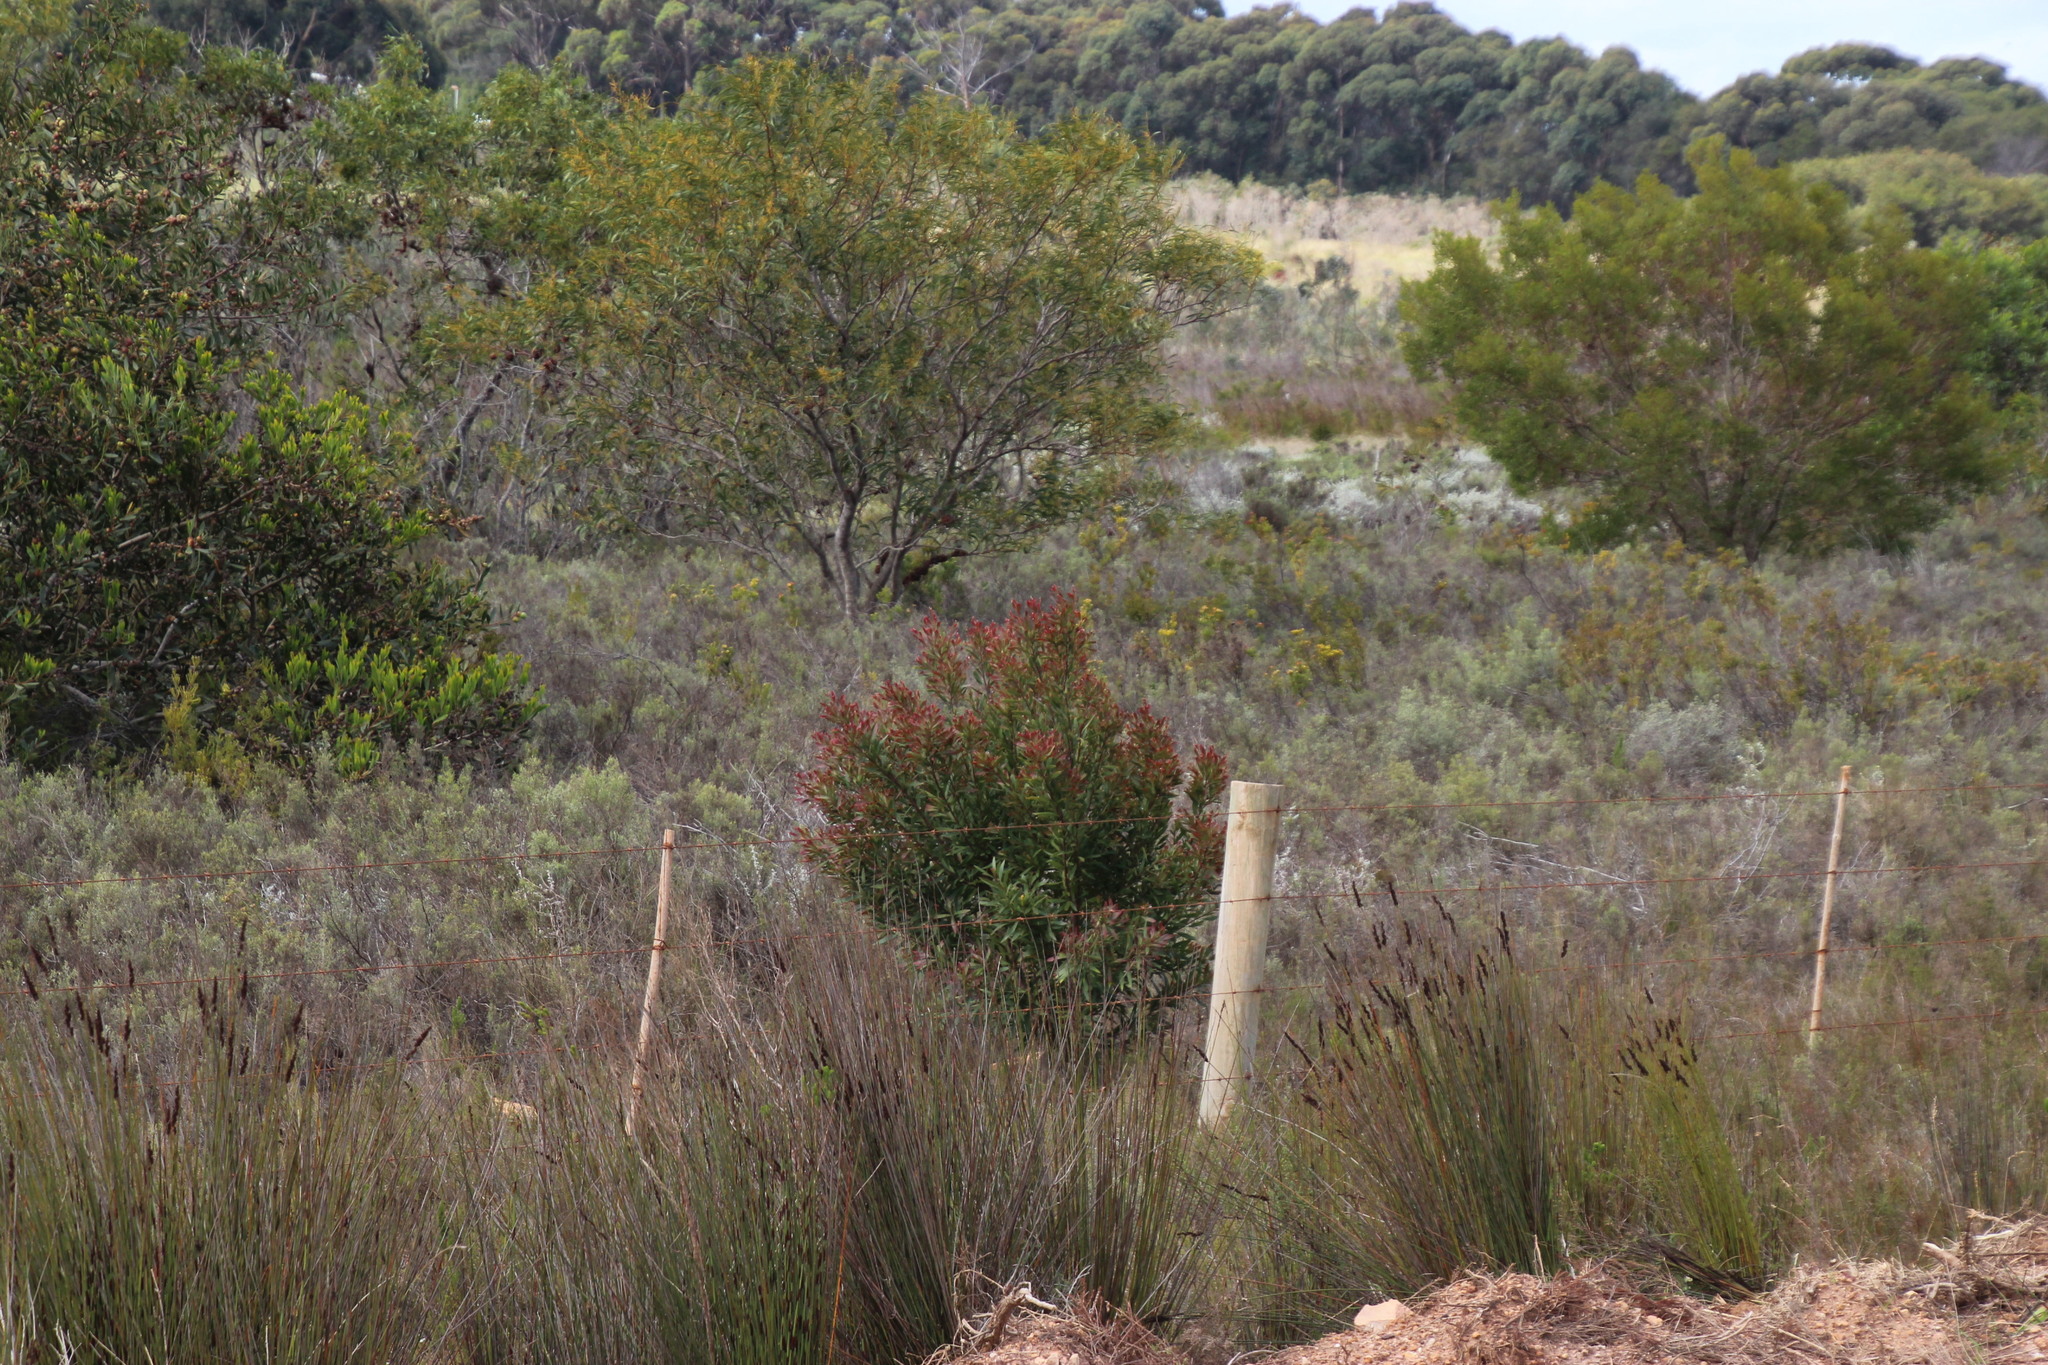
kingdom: Plantae
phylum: Tracheophyta
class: Magnoliopsida
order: Proteales
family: Proteaceae
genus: Hakea
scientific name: Hakea salicifolia
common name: Willow hakea
